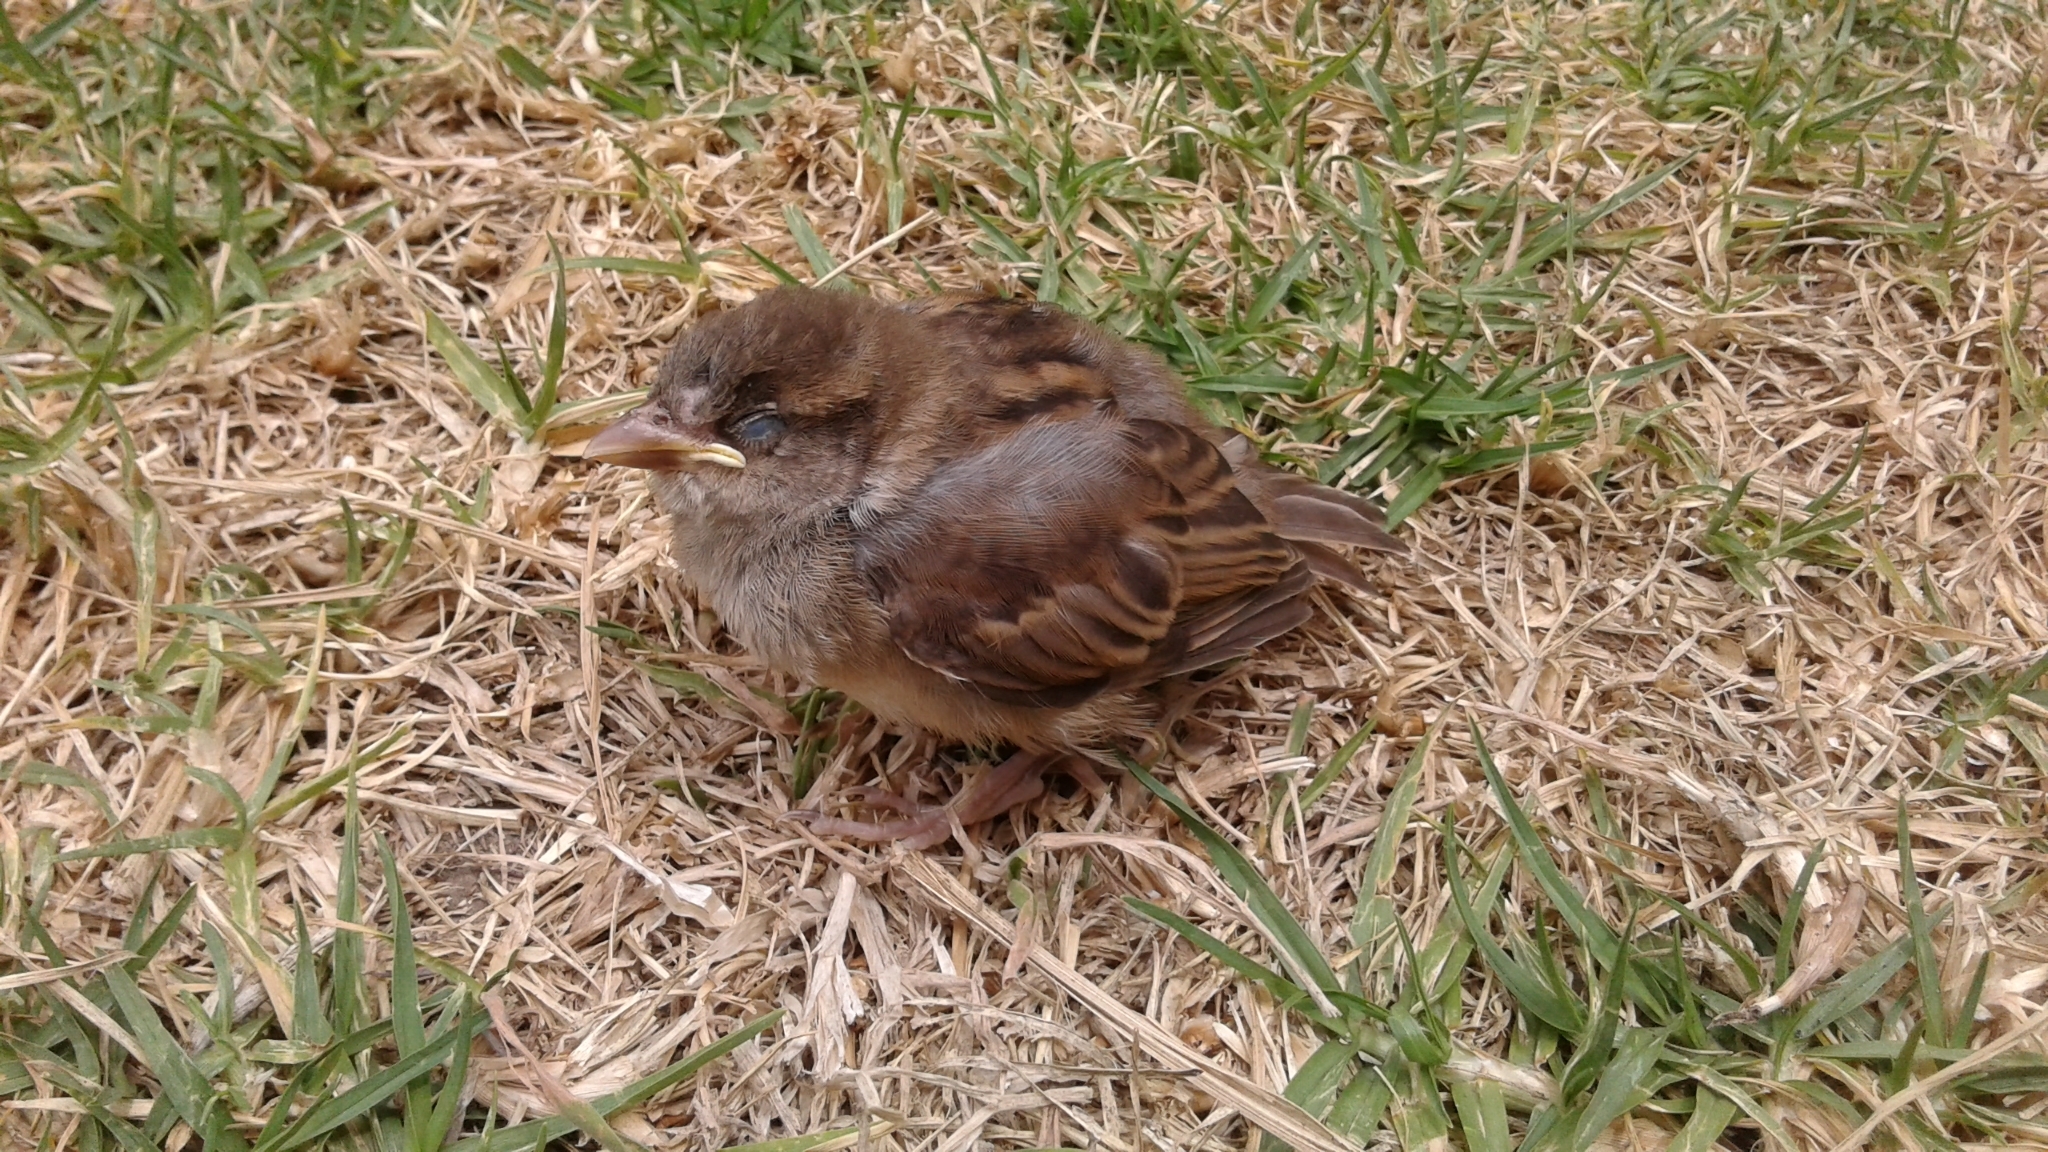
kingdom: Animalia
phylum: Chordata
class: Aves
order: Passeriformes
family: Passeridae
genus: Passer
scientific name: Passer domesticus
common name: House sparrow
